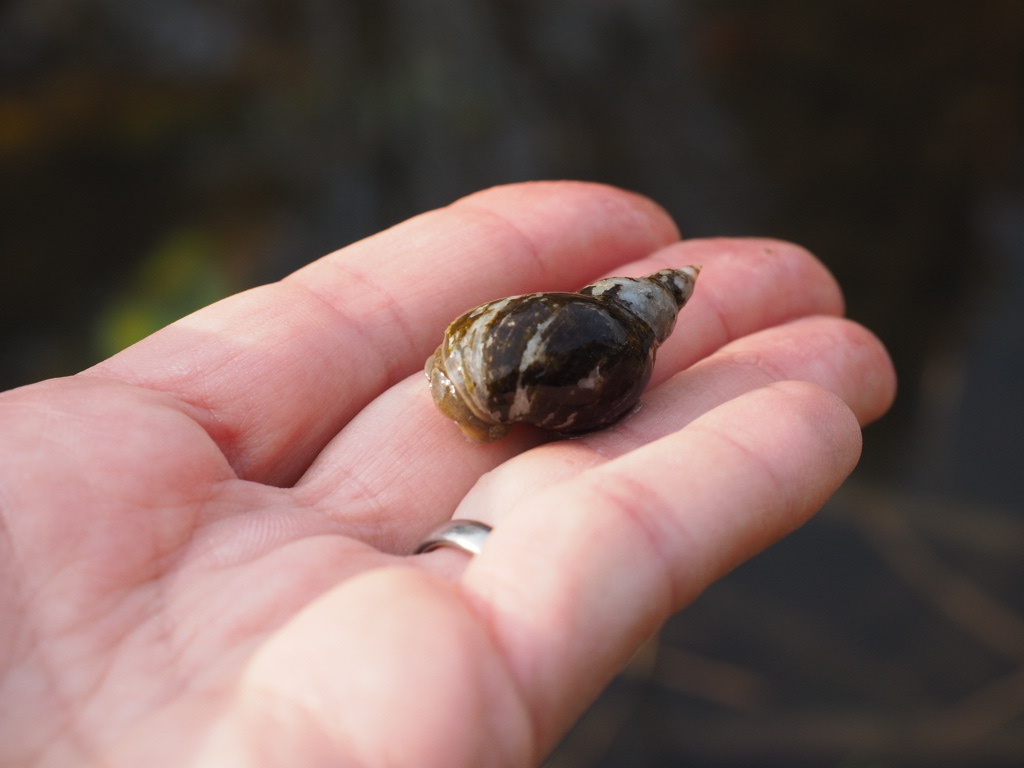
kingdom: Animalia
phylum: Mollusca
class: Gastropoda
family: Lymnaeidae
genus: Lymnaea
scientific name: Lymnaea stagnalis
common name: Great pond snail
